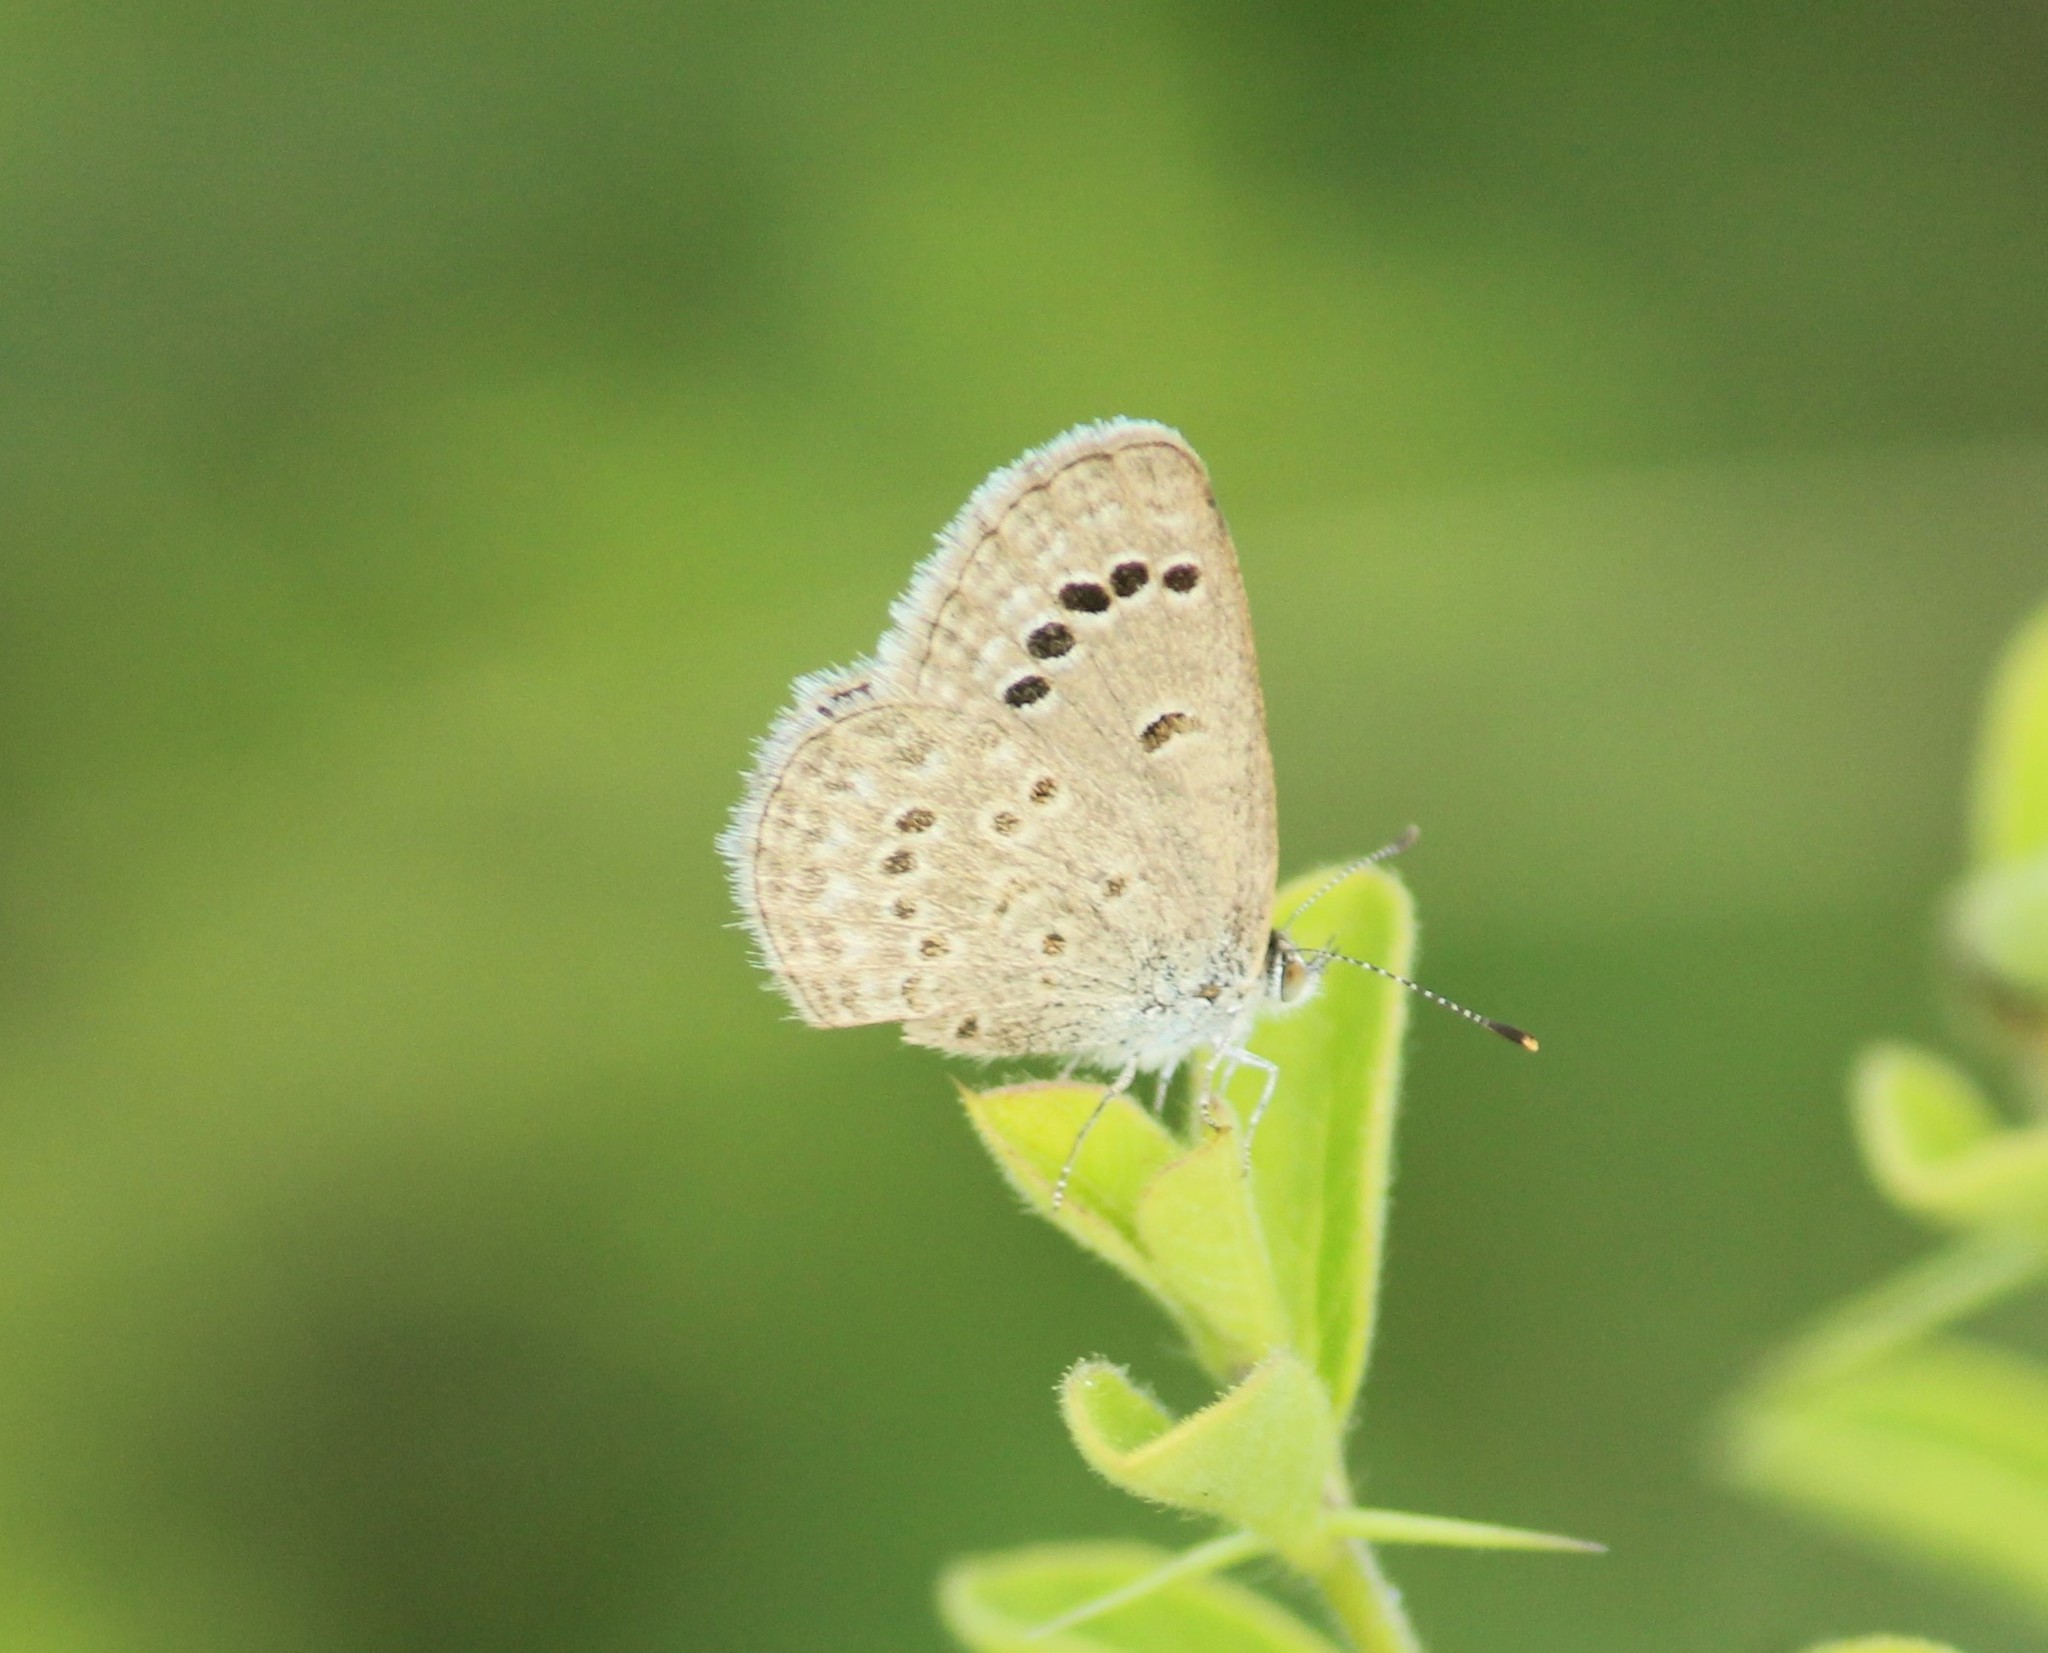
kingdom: Animalia
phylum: Arthropoda
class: Insecta
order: Lepidoptera
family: Lycaenidae
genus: Zizina
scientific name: Zizina otis
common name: Lesser grass blue
